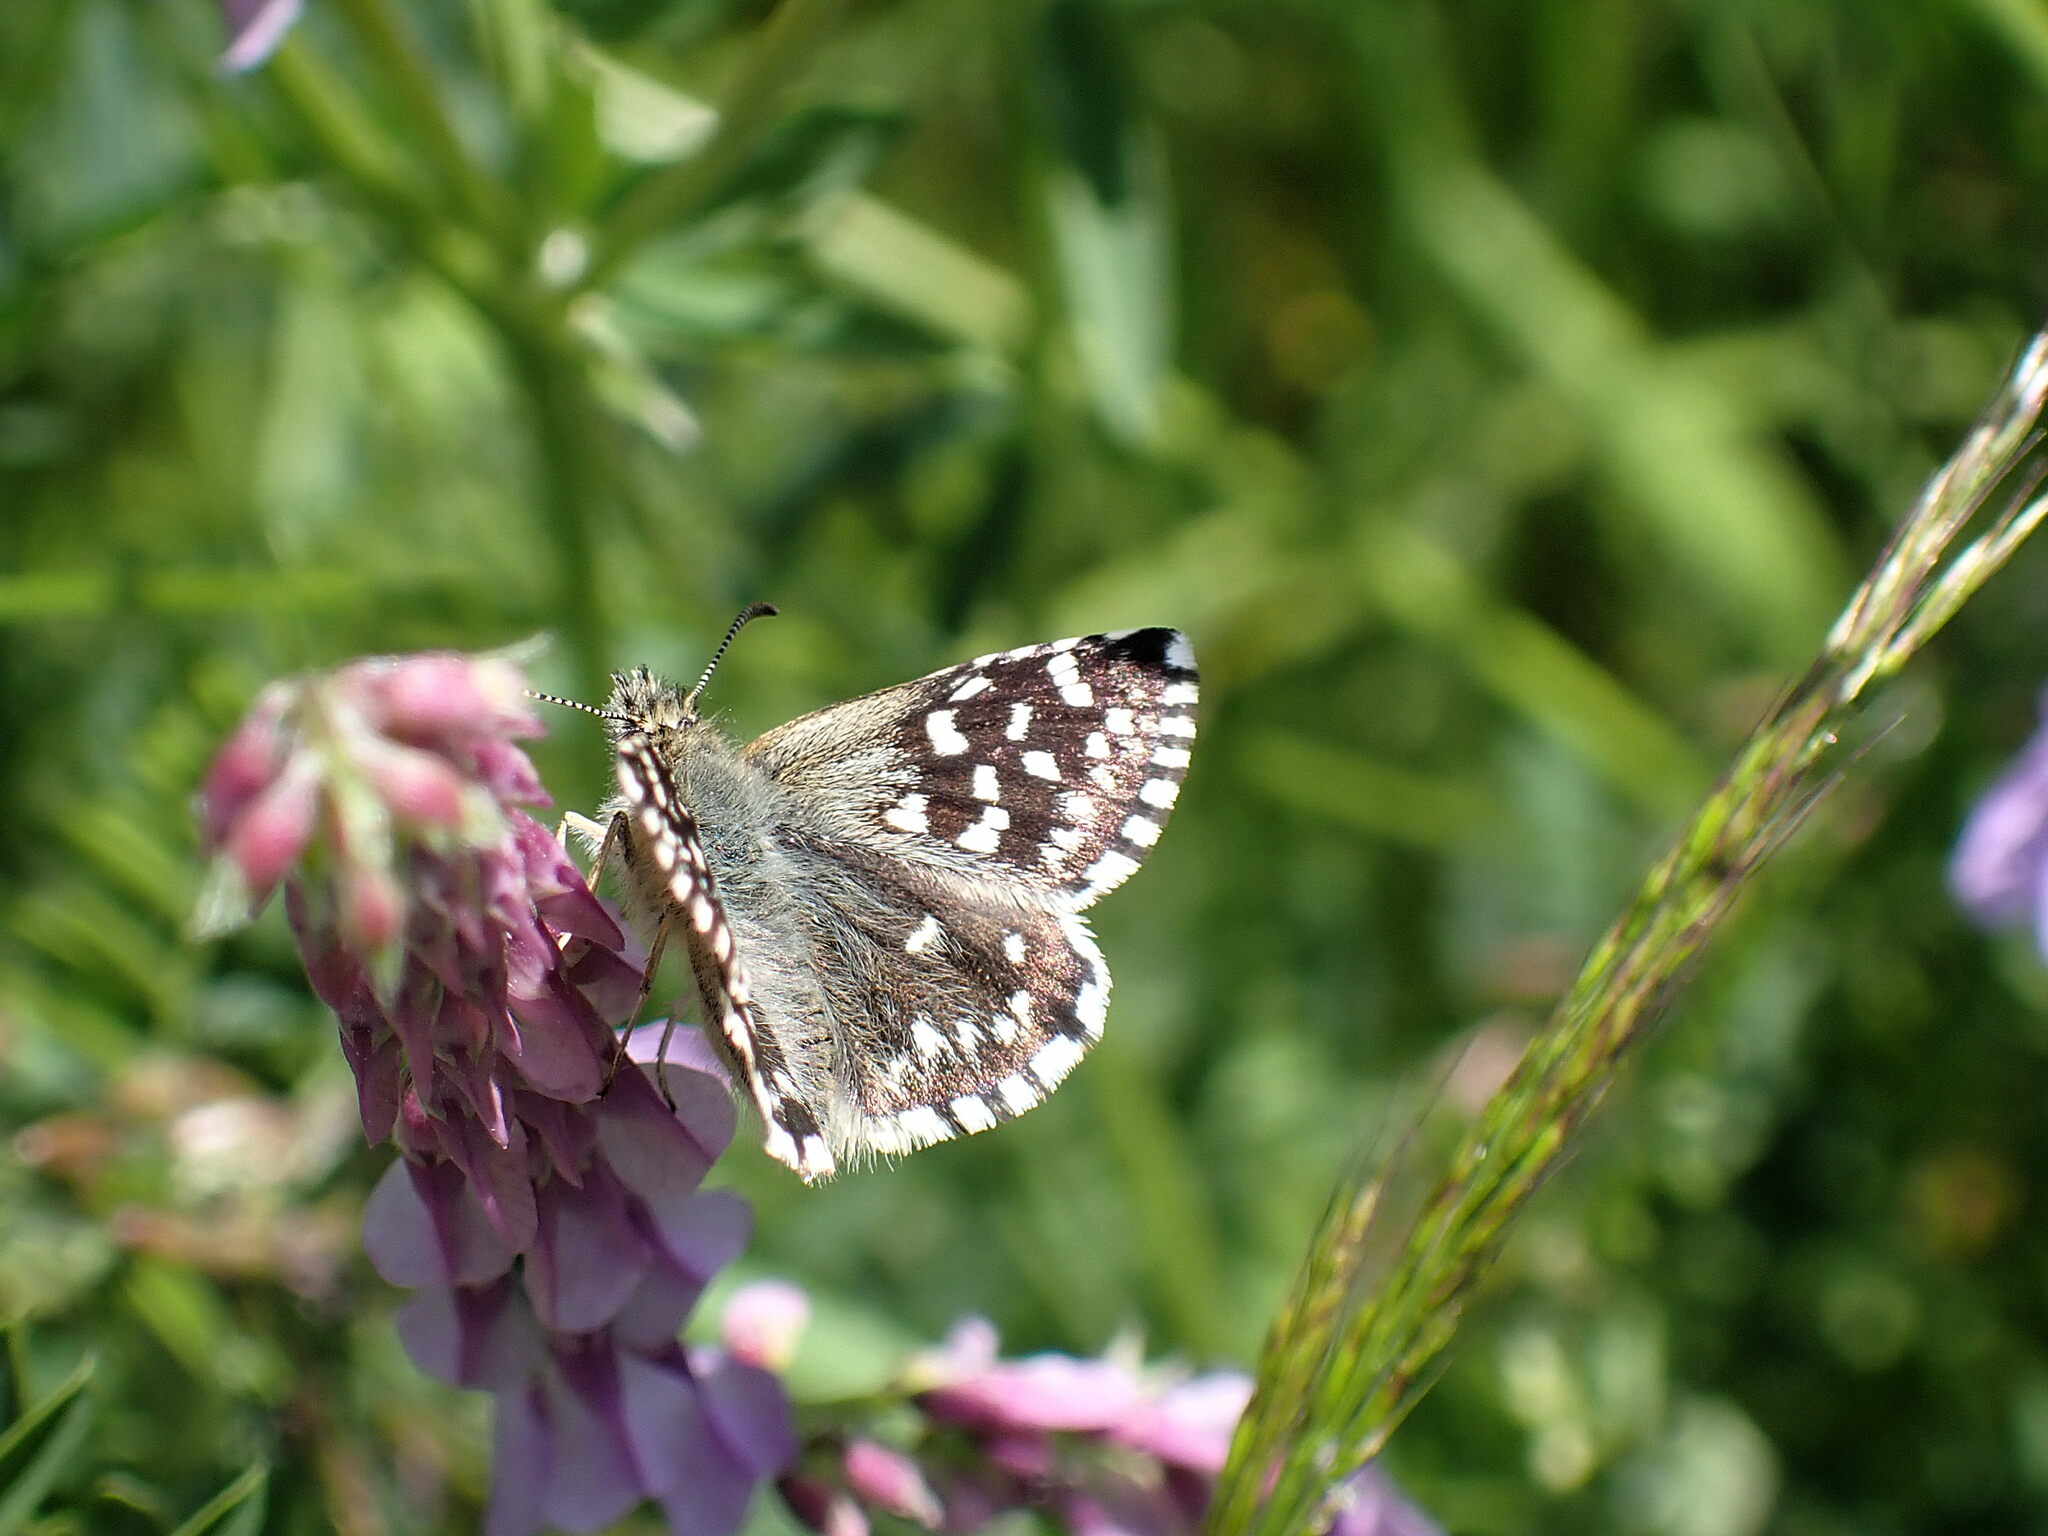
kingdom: Animalia
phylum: Arthropoda
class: Insecta
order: Lepidoptera
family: Hesperiidae
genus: Pyrgus
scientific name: Pyrgus malvae
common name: Grizzled skipper
